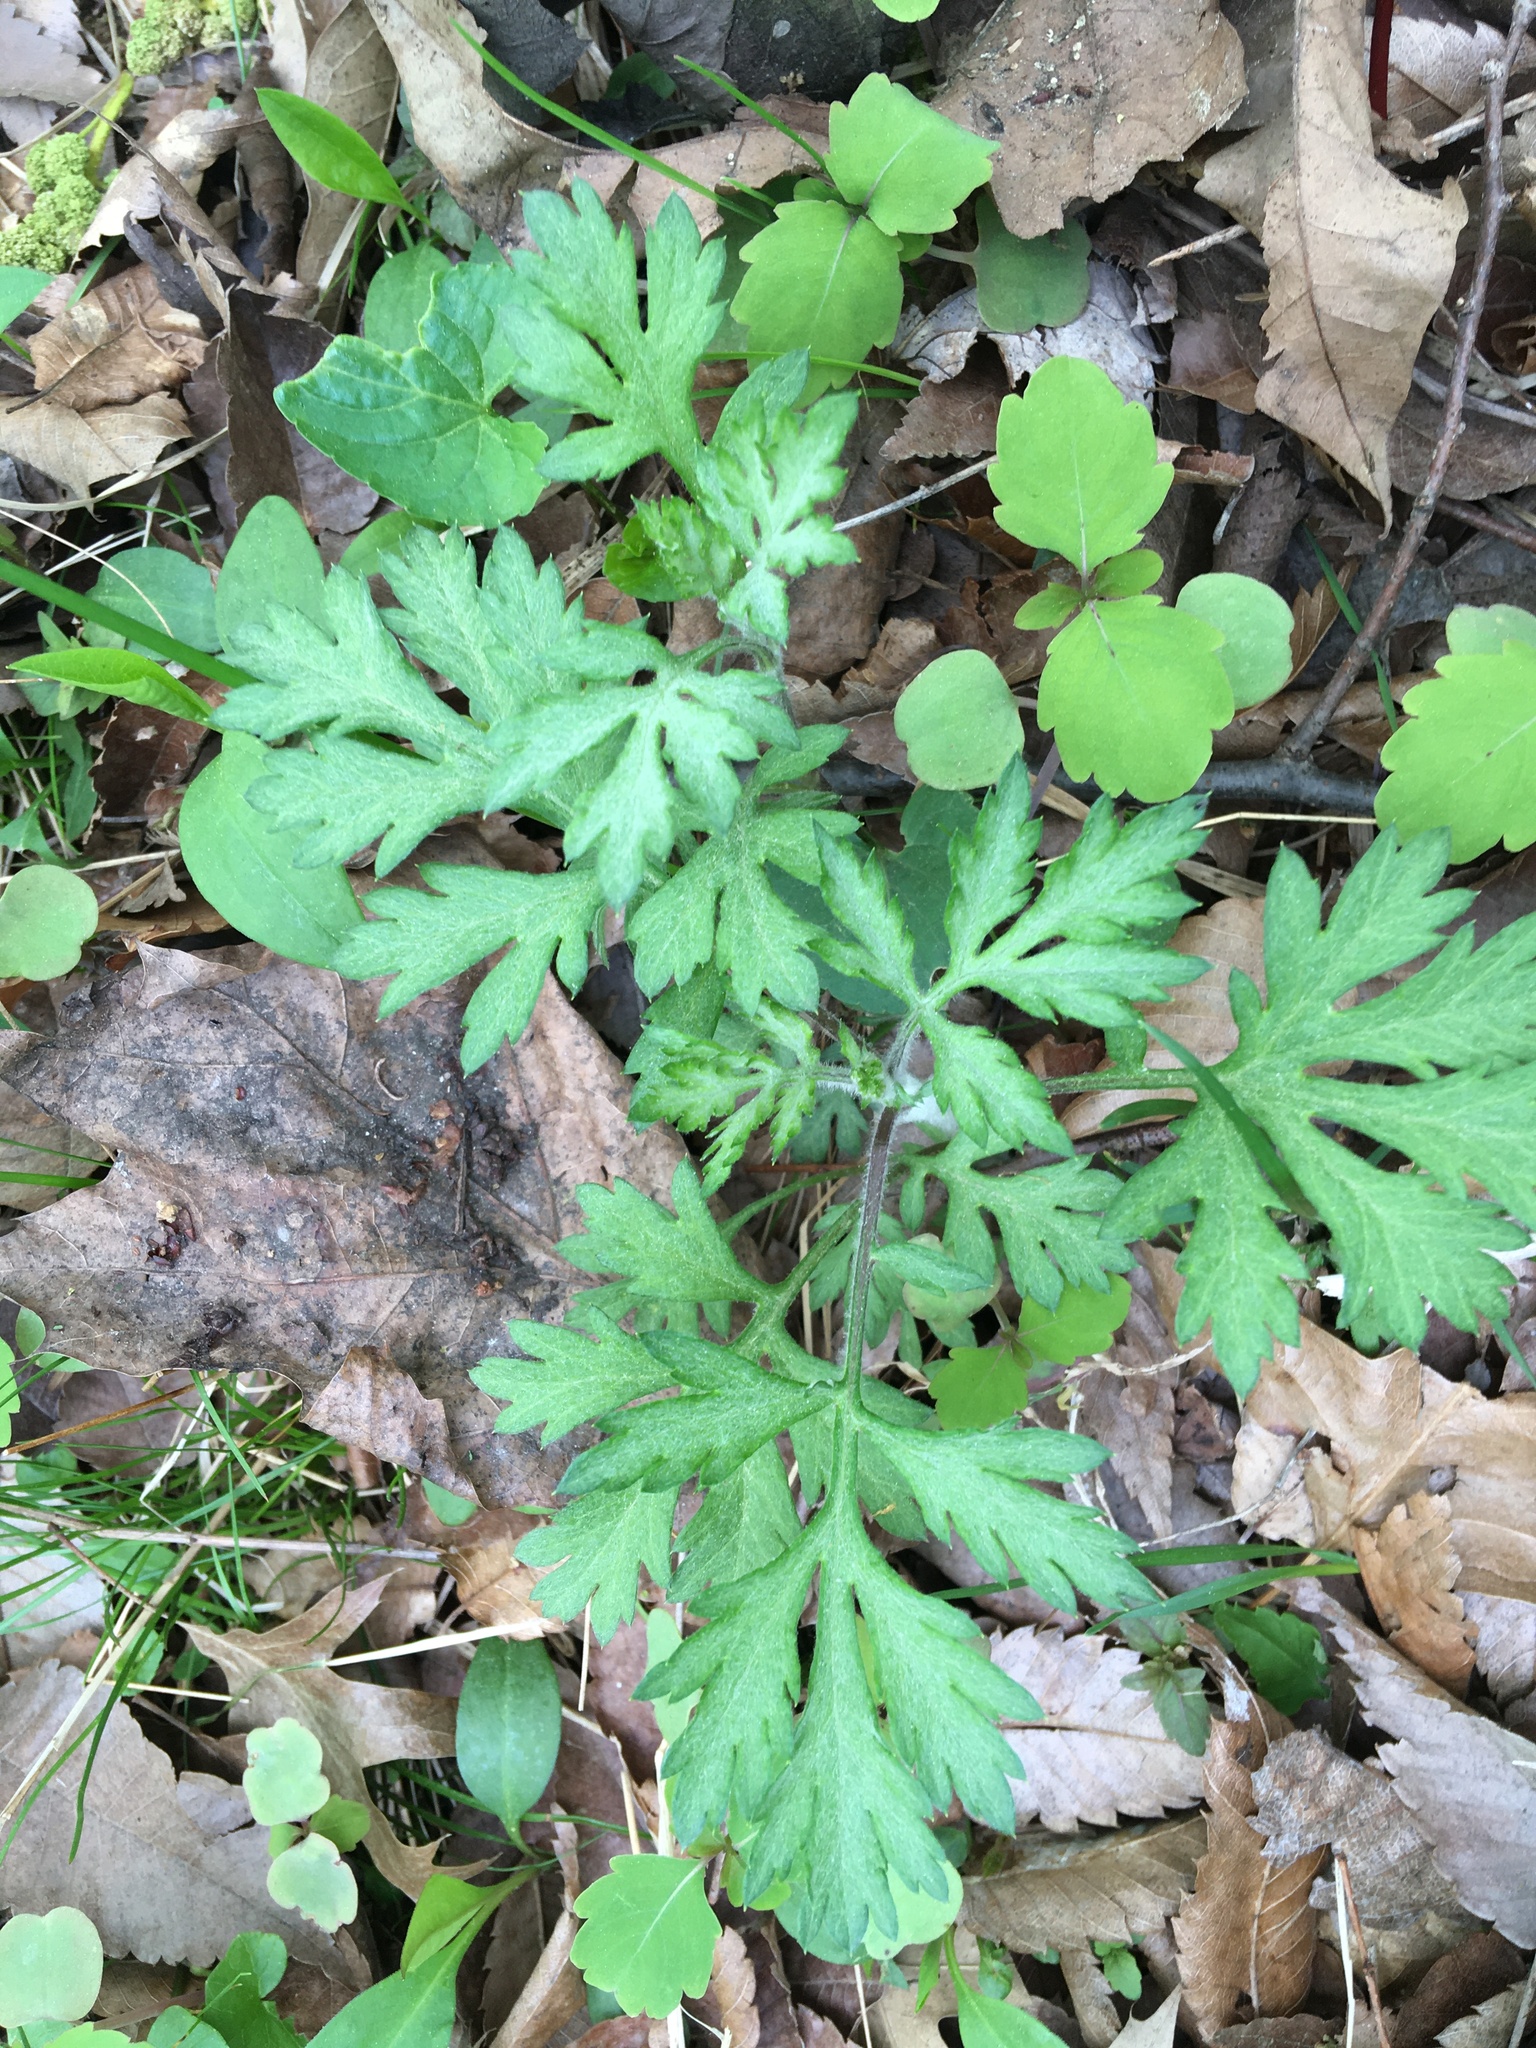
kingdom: Plantae
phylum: Tracheophyta
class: Magnoliopsida
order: Asterales
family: Asteraceae
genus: Artemisia
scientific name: Artemisia vulgaris
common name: Mugwort
